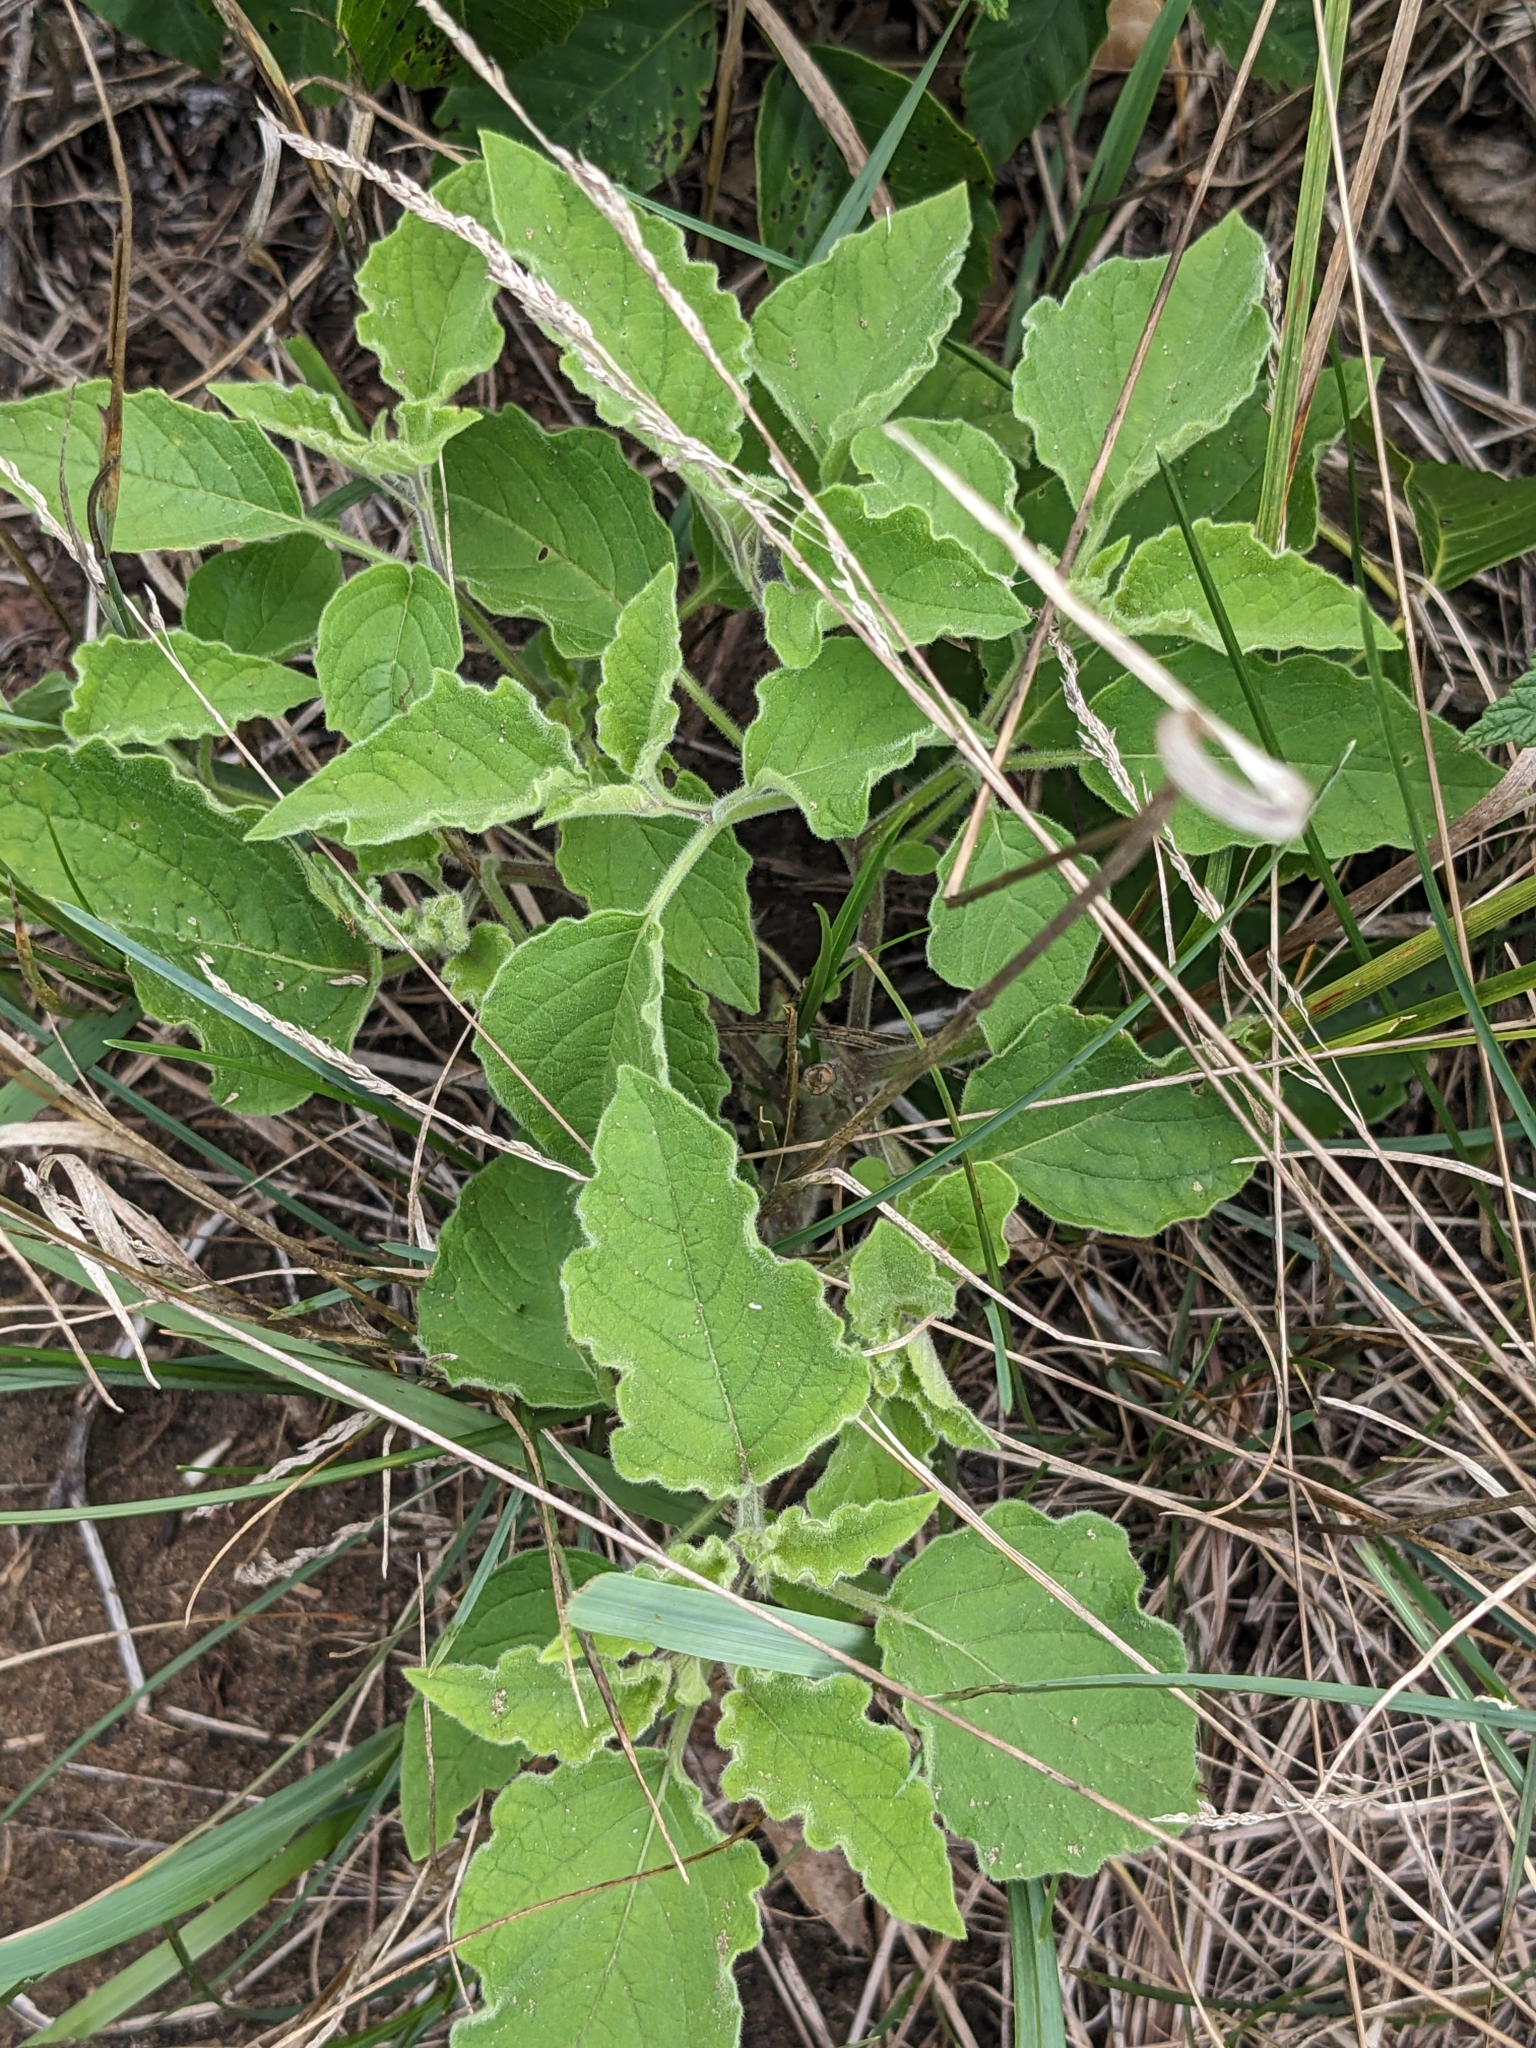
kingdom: Plantae
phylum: Tracheophyta
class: Magnoliopsida
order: Solanales
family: Solanaceae
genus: Physalis
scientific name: Physalis heterophylla
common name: Clammy ground-cherry
